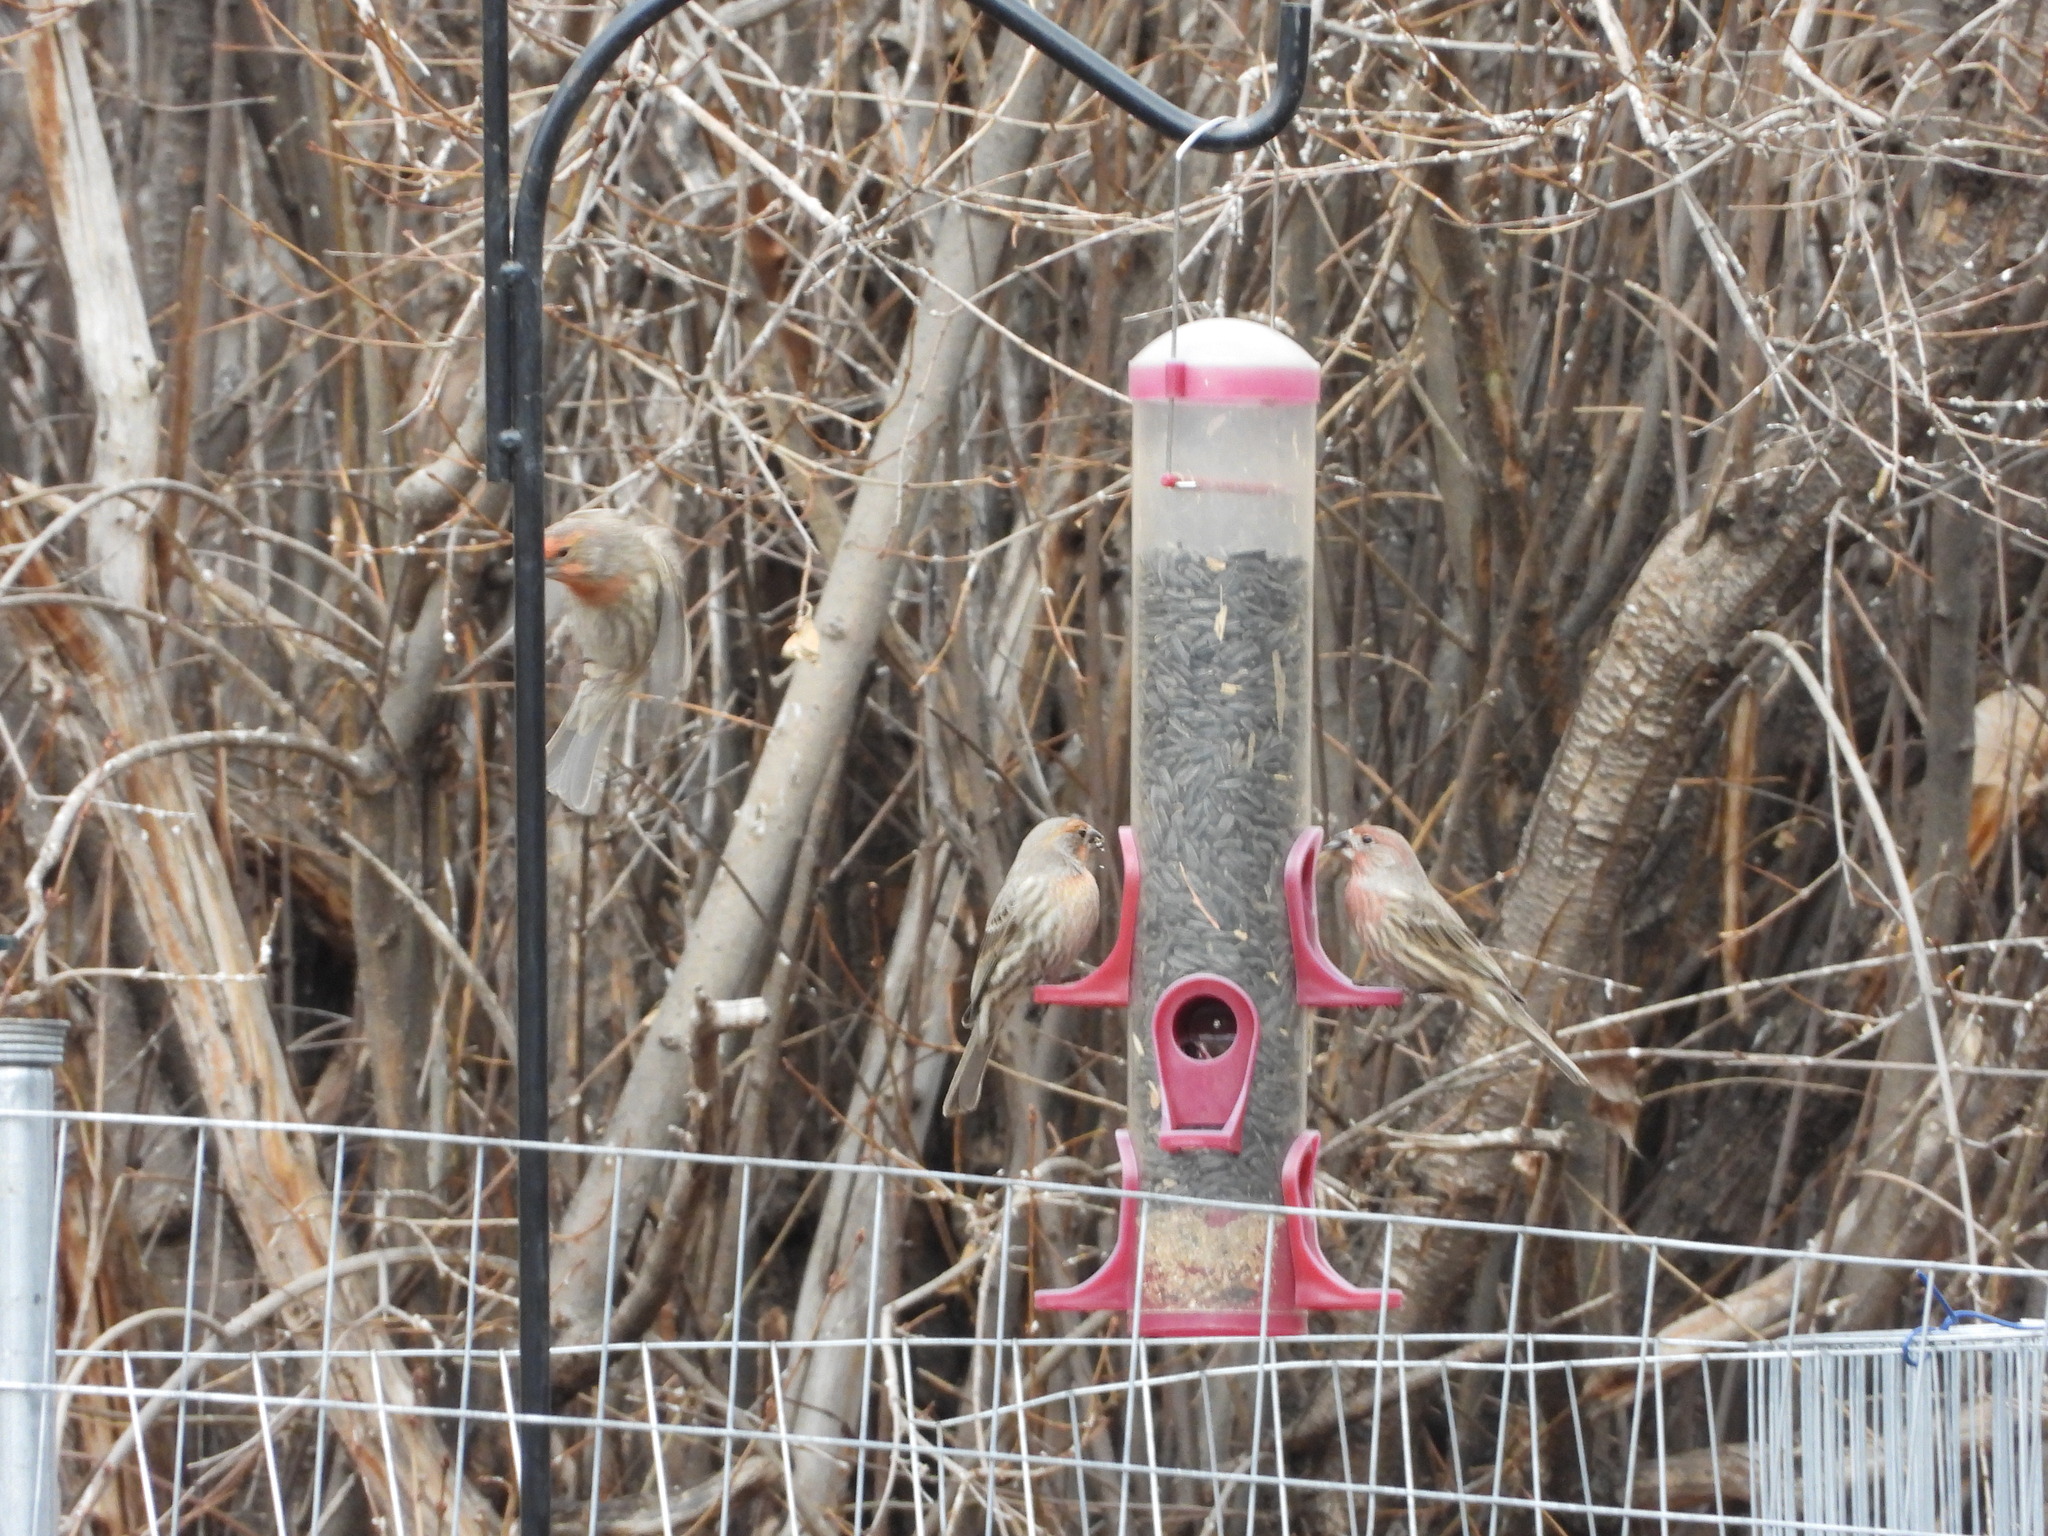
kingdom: Animalia
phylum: Chordata
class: Aves
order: Passeriformes
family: Fringillidae
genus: Haemorhous
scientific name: Haemorhous mexicanus
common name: House finch
